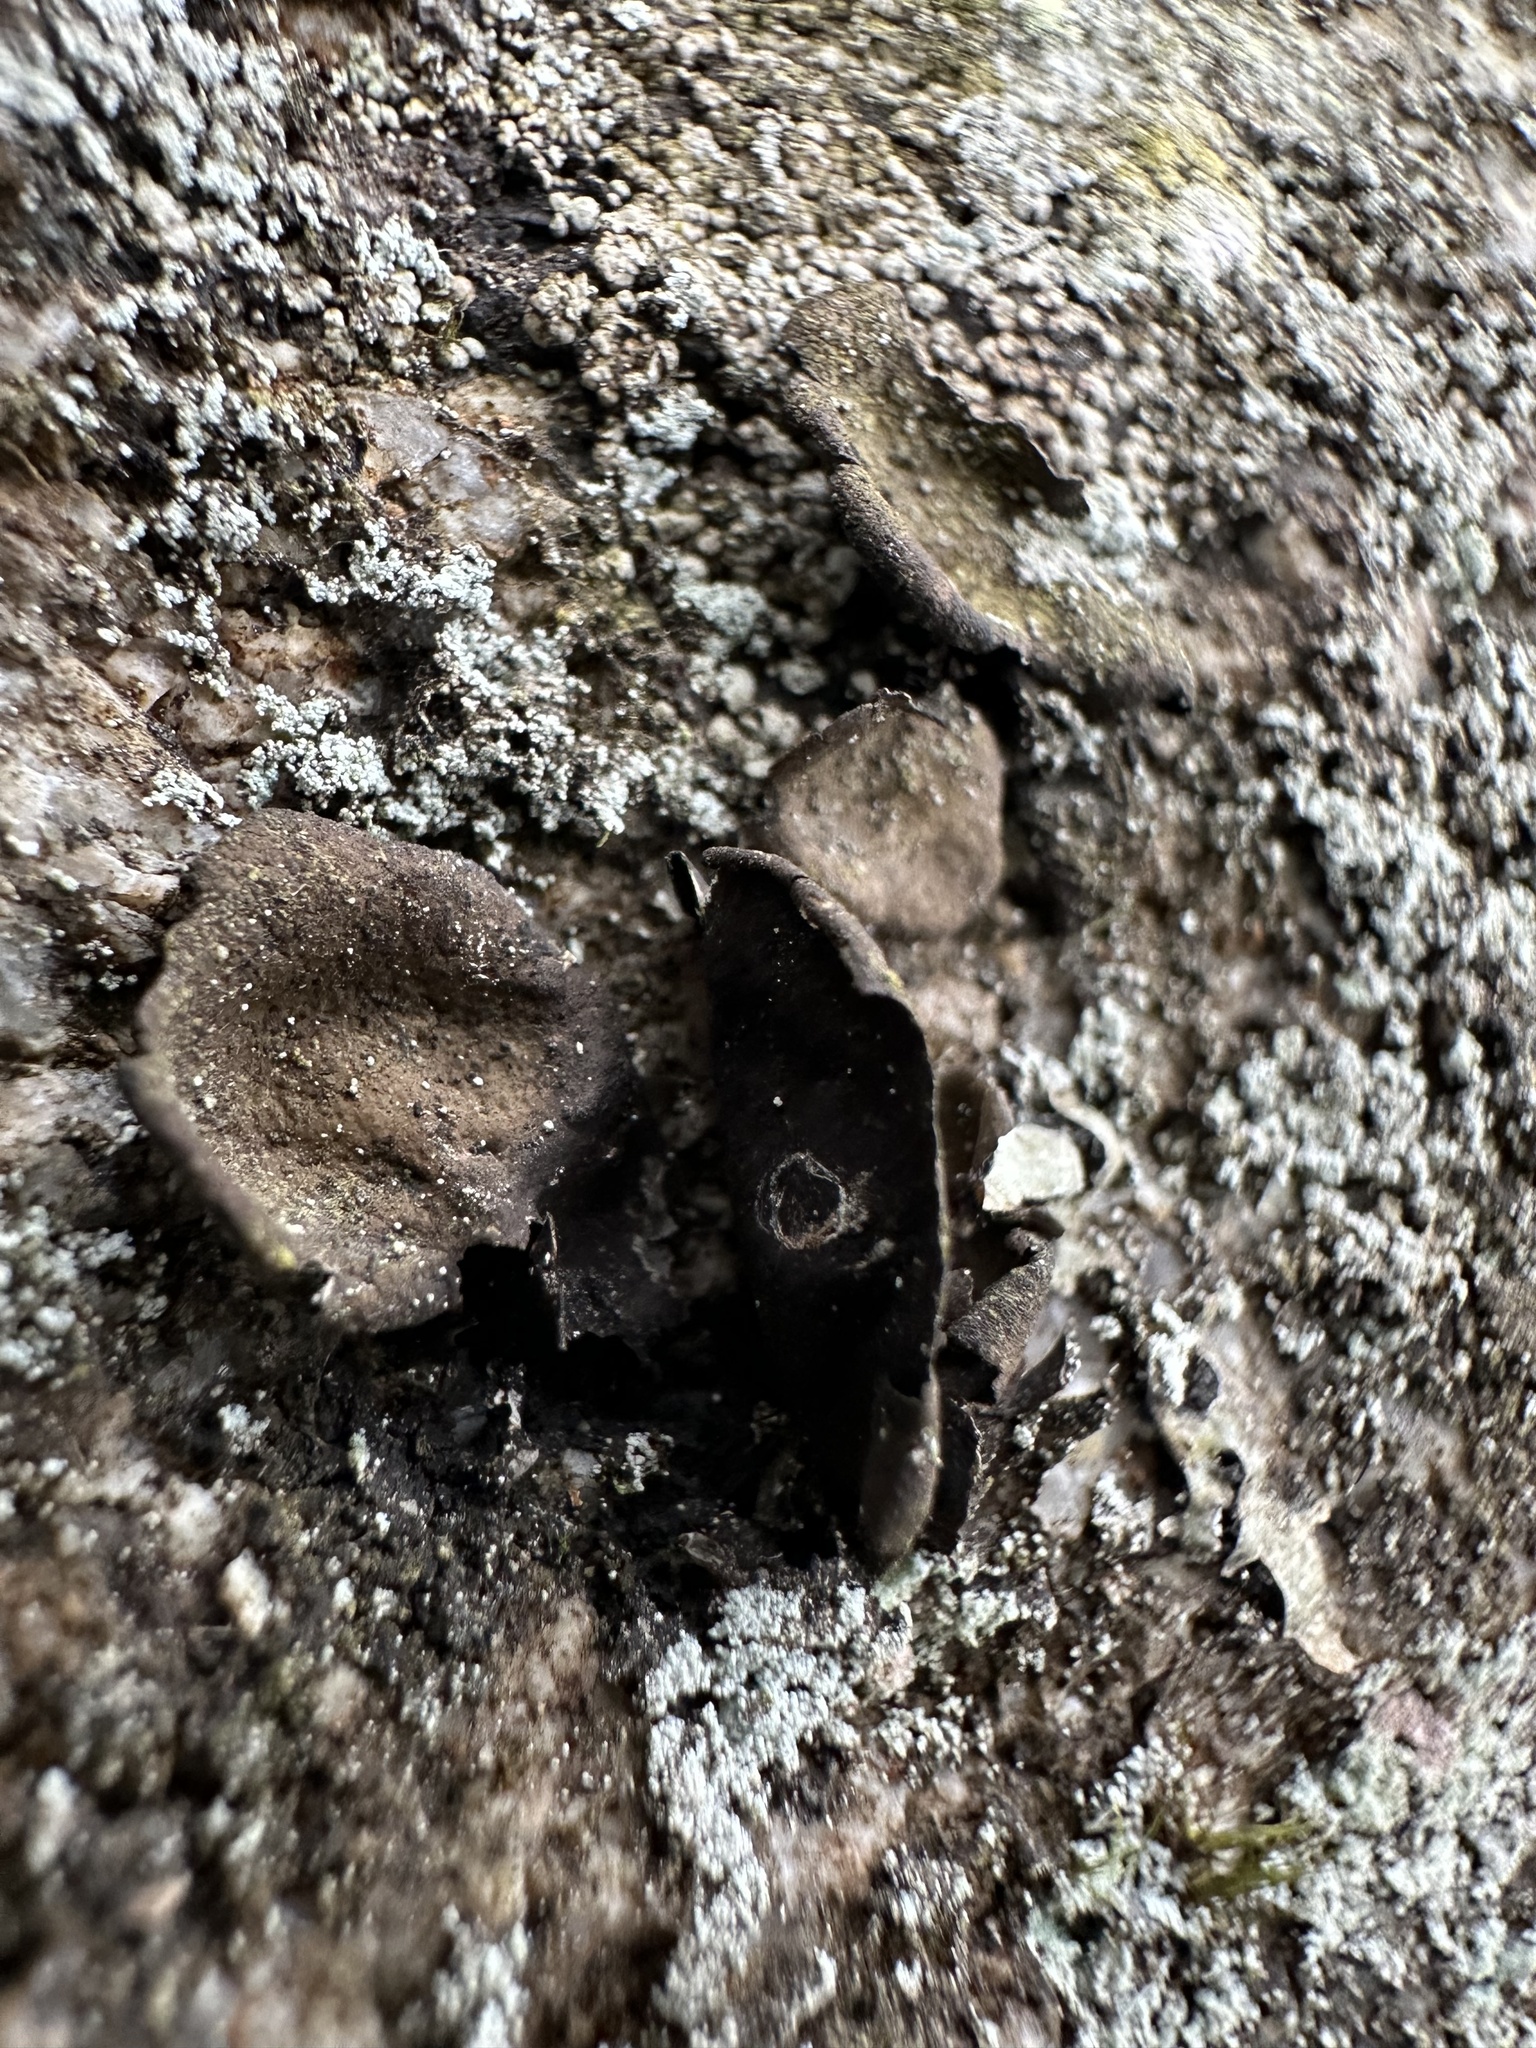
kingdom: Fungi
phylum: Ascomycota
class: Lecanoromycetes
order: Umbilicariales
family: Umbilicariaceae
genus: Umbilicaria
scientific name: Umbilicaria deusta
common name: Peppered rock tripe
